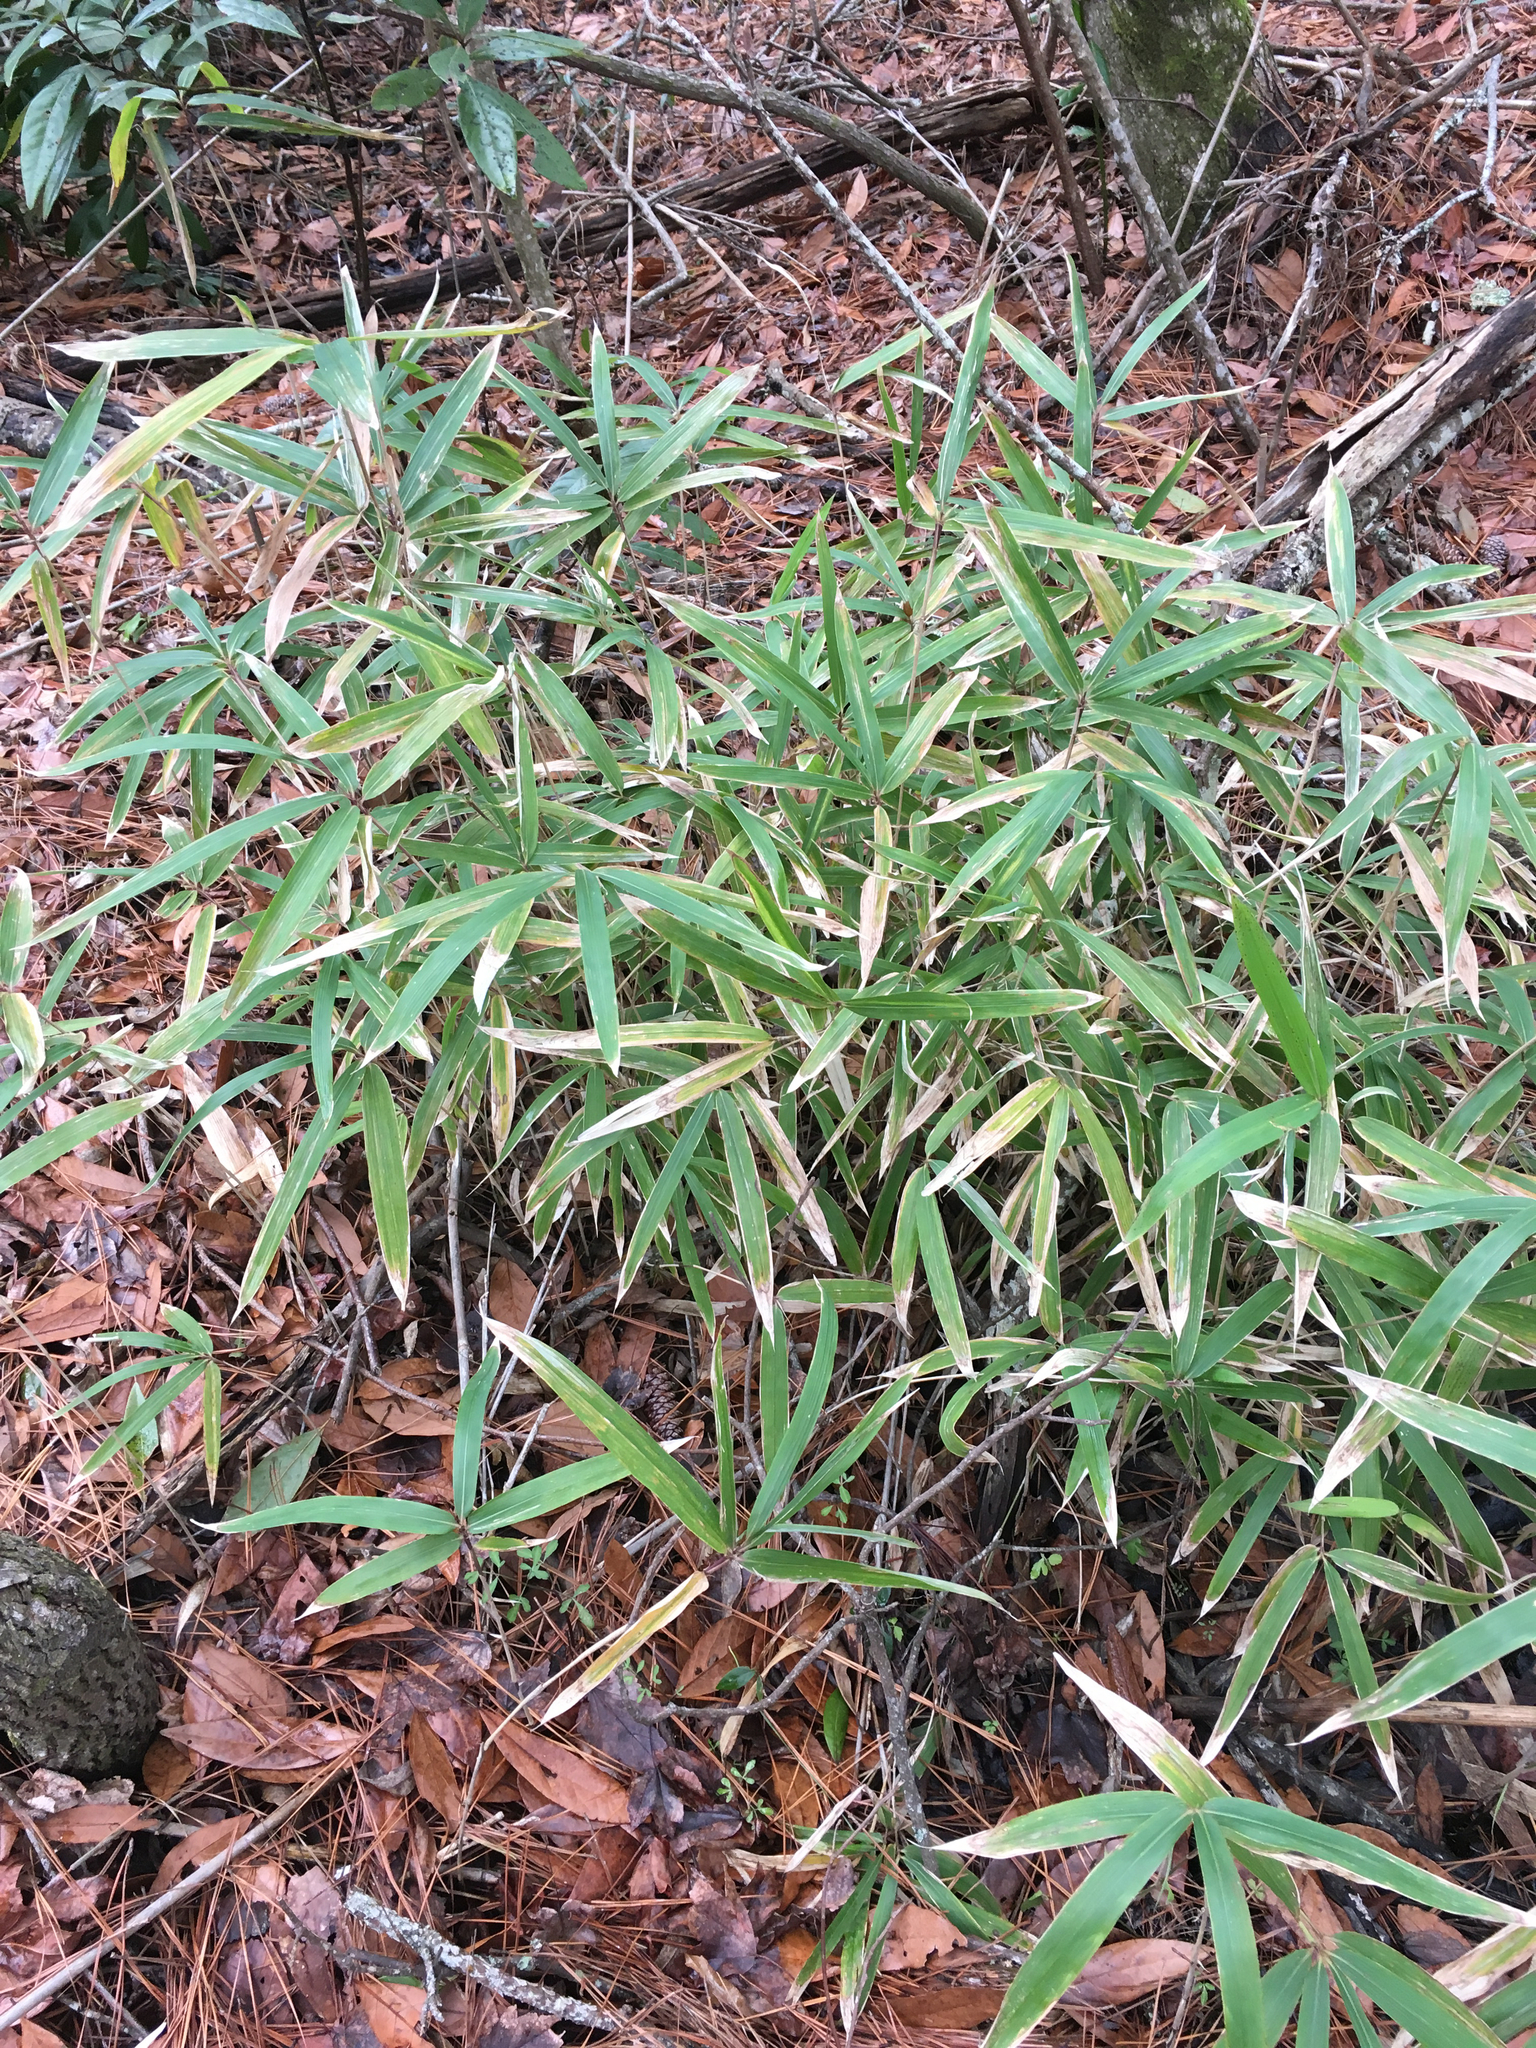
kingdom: Plantae
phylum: Tracheophyta
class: Liliopsida
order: Poales
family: Poaceae
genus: Arundinaria
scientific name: Arundinaria tecta
